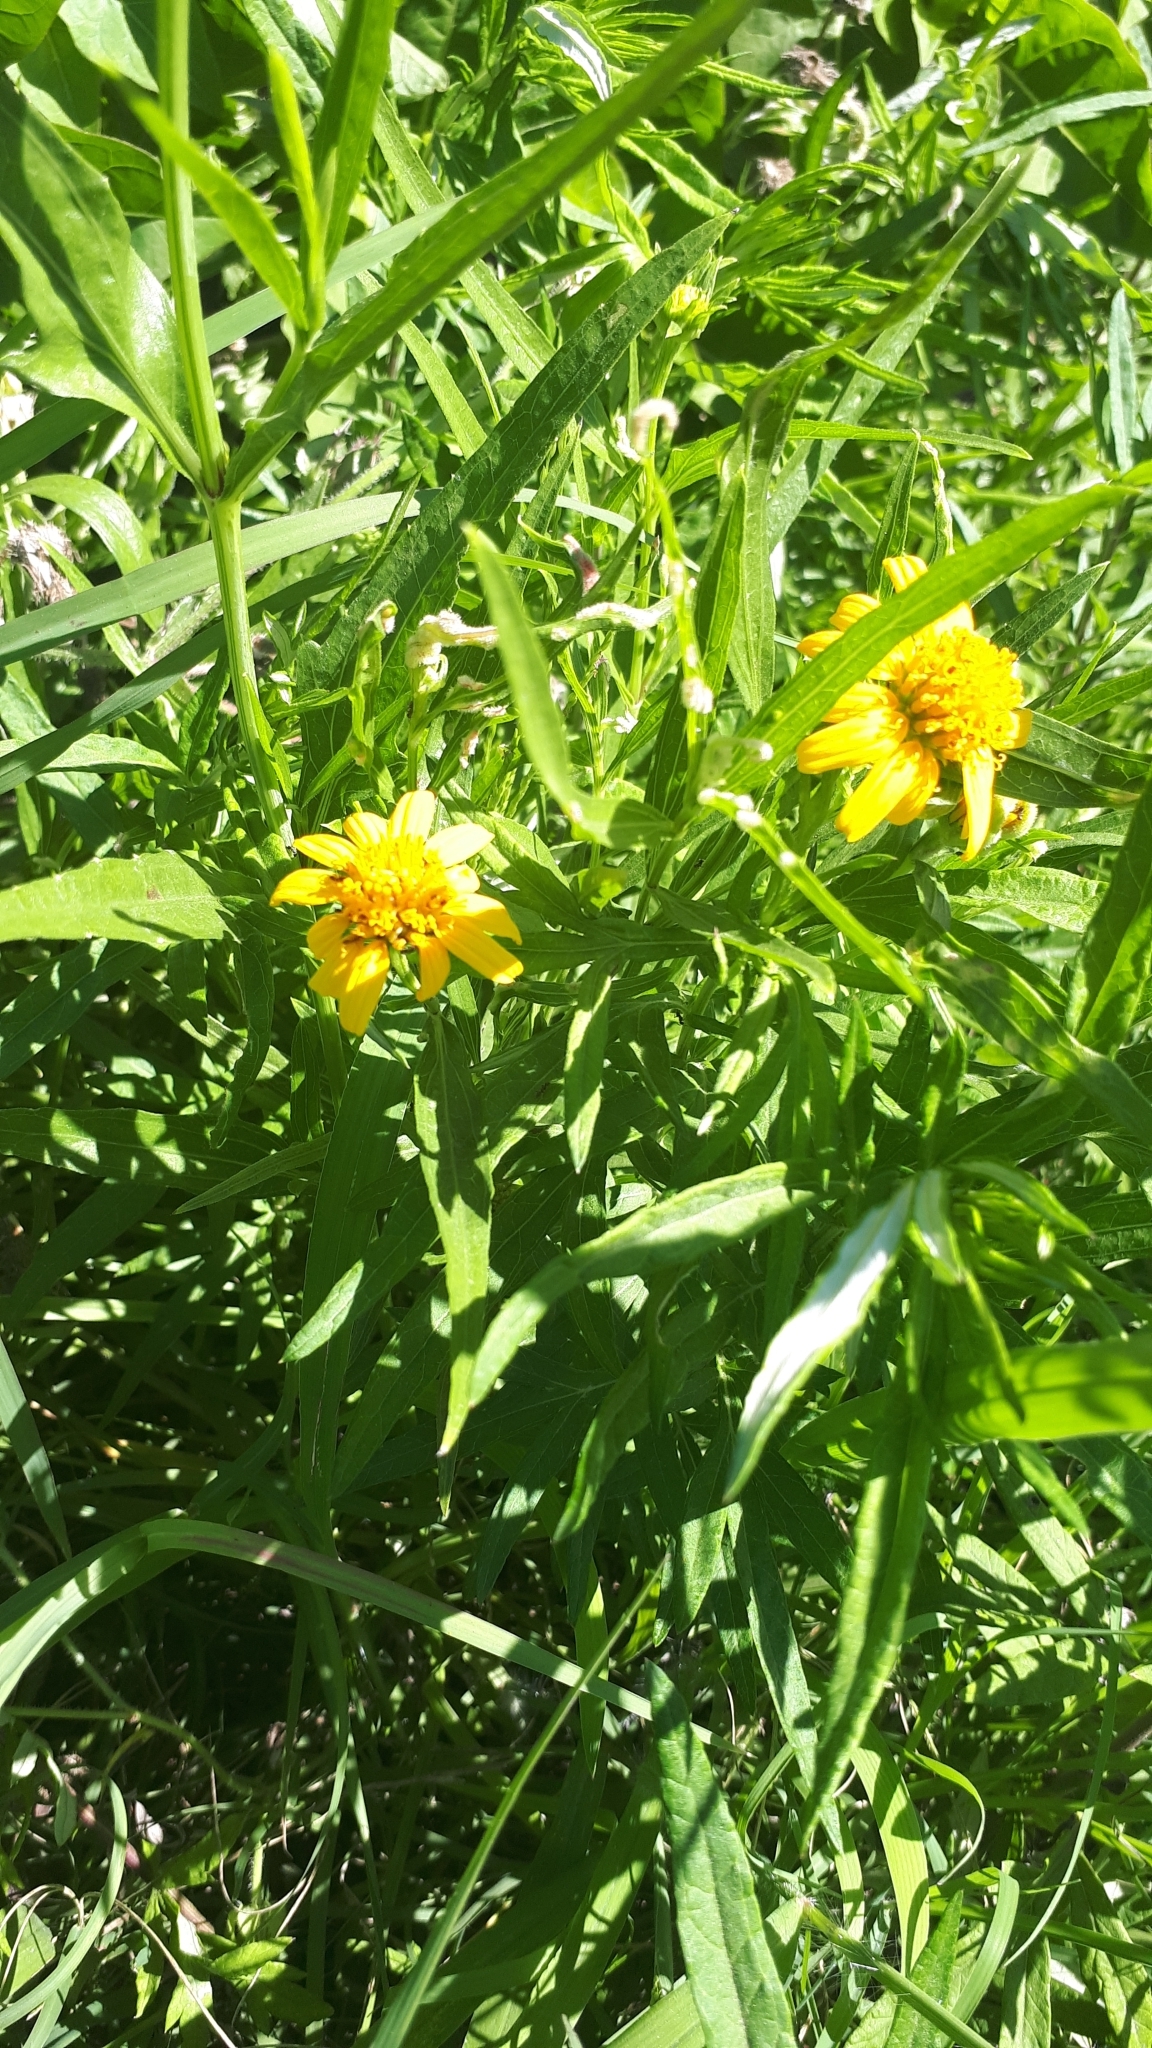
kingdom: Plantae
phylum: Tracheophyta
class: Magnoliopsida
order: Asterales
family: Asteraceae
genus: Pascalia
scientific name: Pascalia glauca
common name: Beach creeping oxeye
